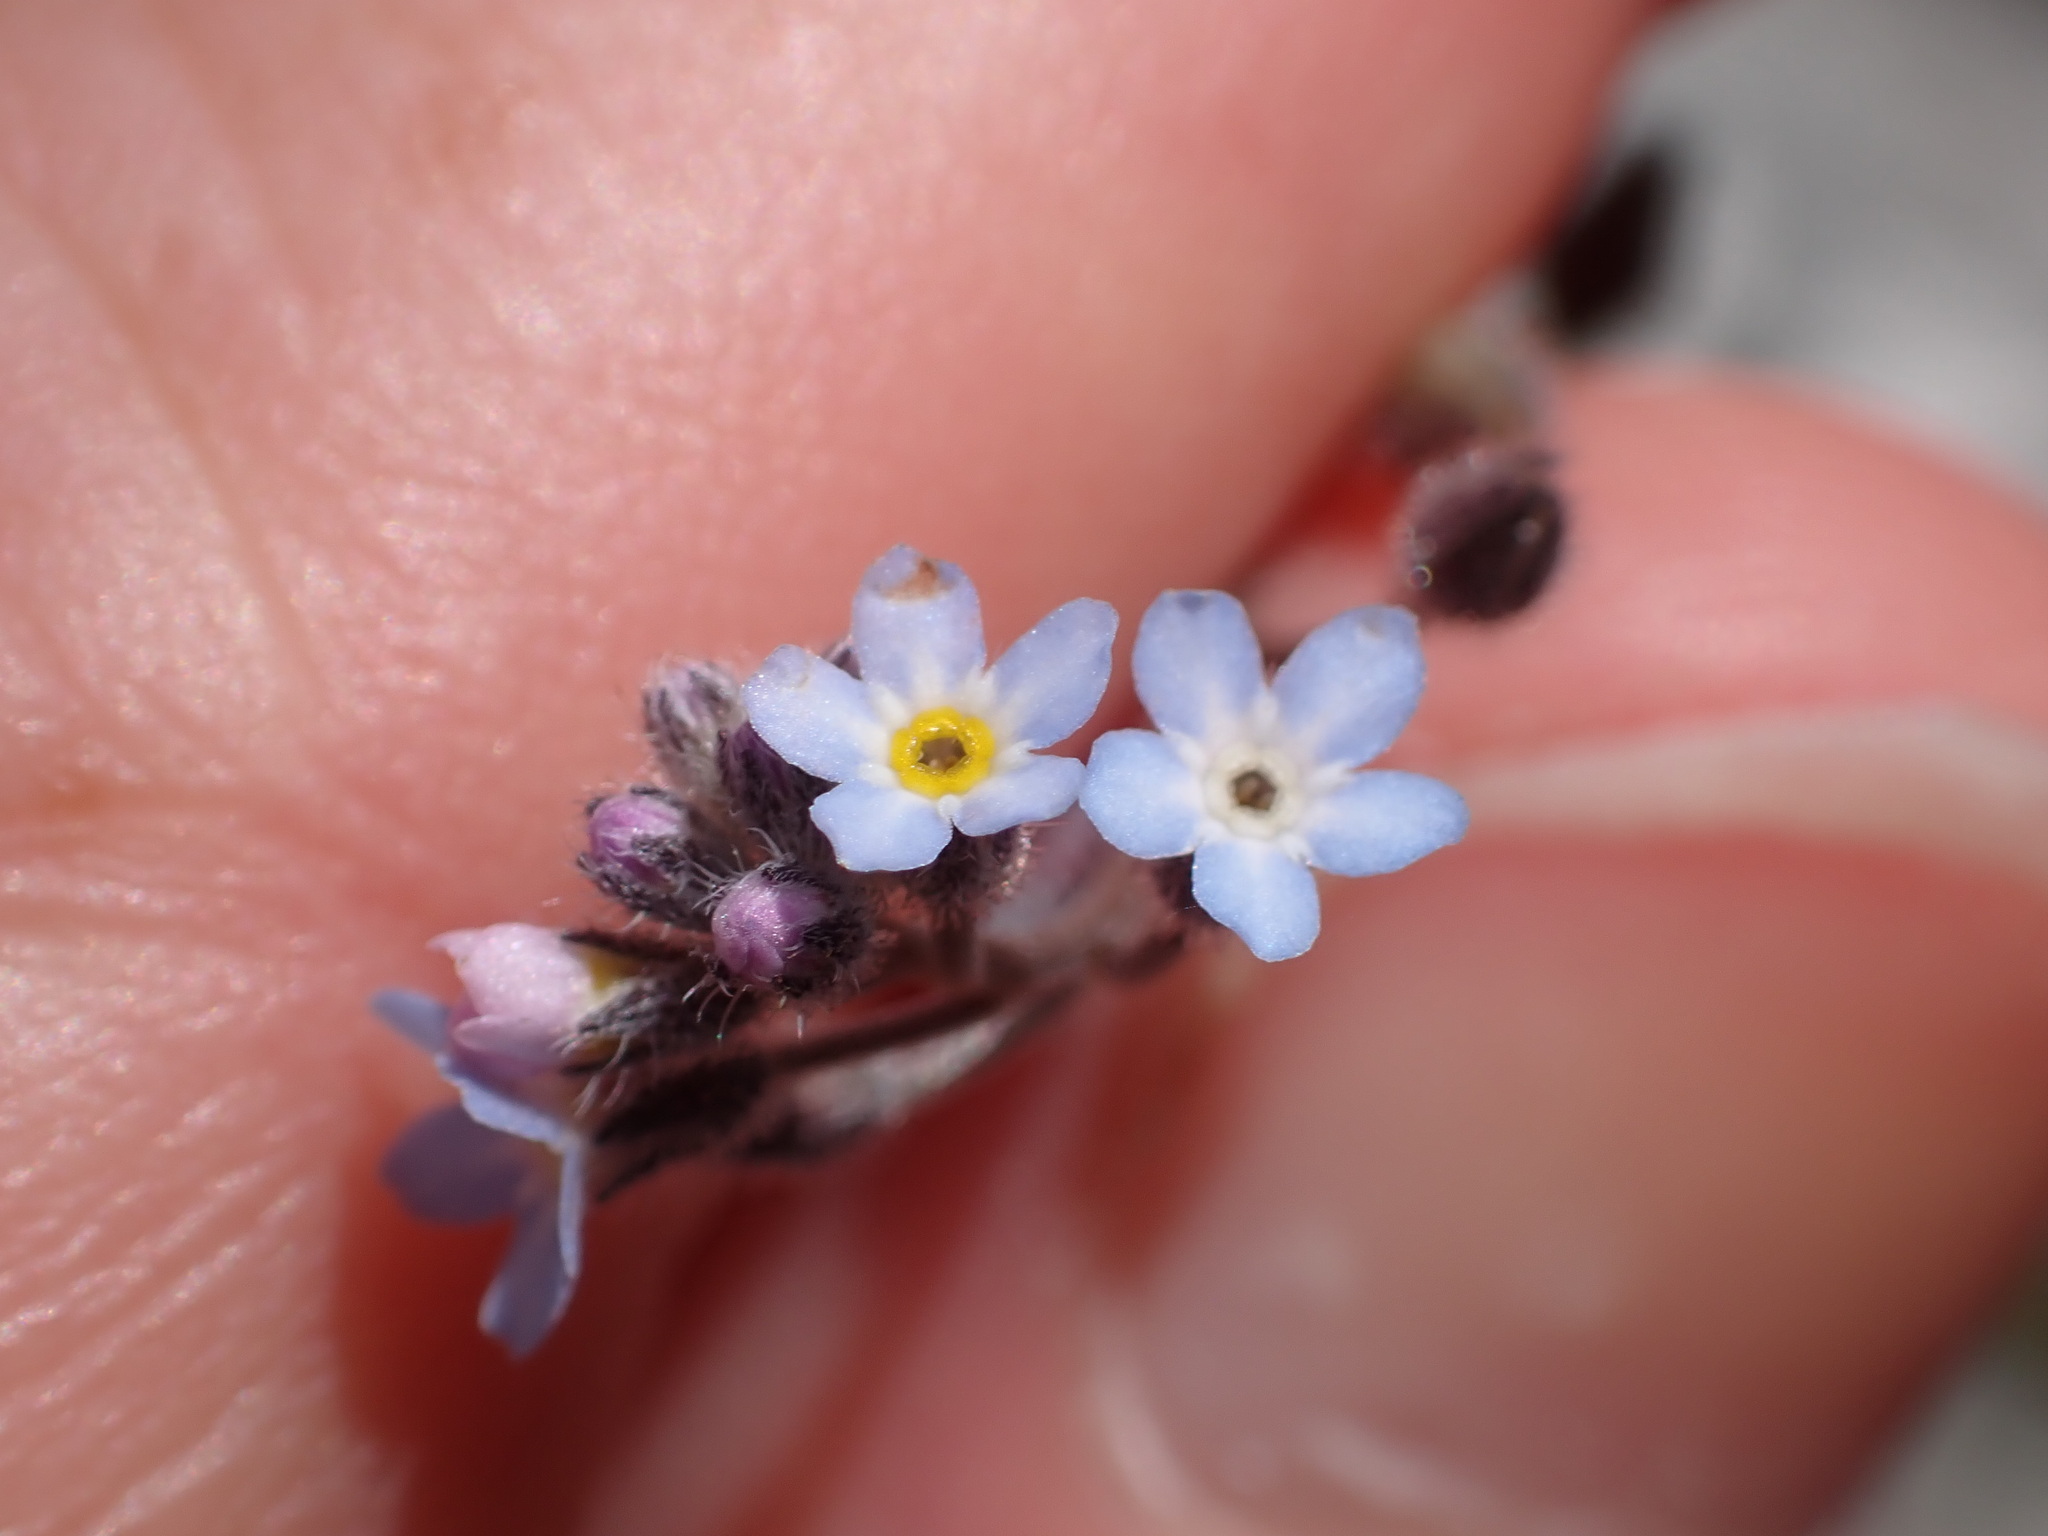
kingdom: Plantae
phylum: Tracheophyta
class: Magnoliopsida
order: Boraginales
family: Boraginaceae
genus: Myosotis
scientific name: Myosotis arvensis
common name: Field forget-me-not
